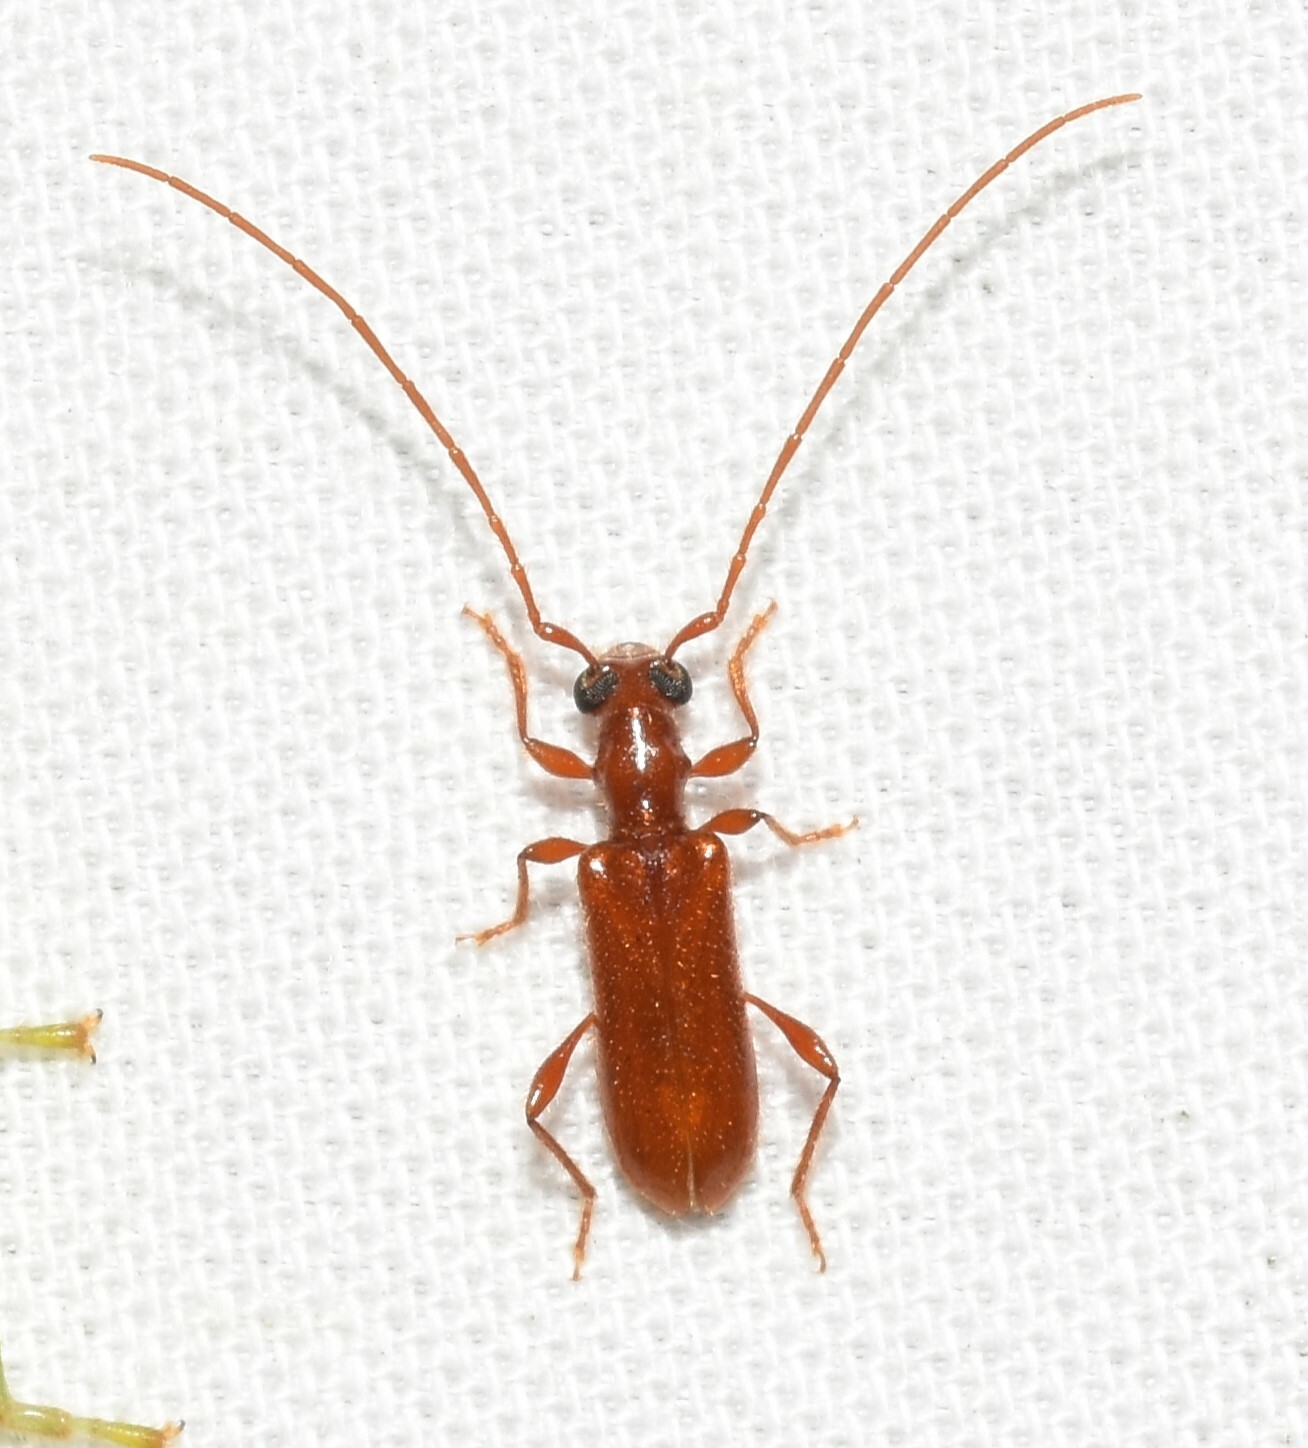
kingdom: Animalia
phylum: Arthropoda
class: Insecta
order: Coleoptera
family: Cerambycidae
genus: Obrium
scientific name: Obrium rufulum
